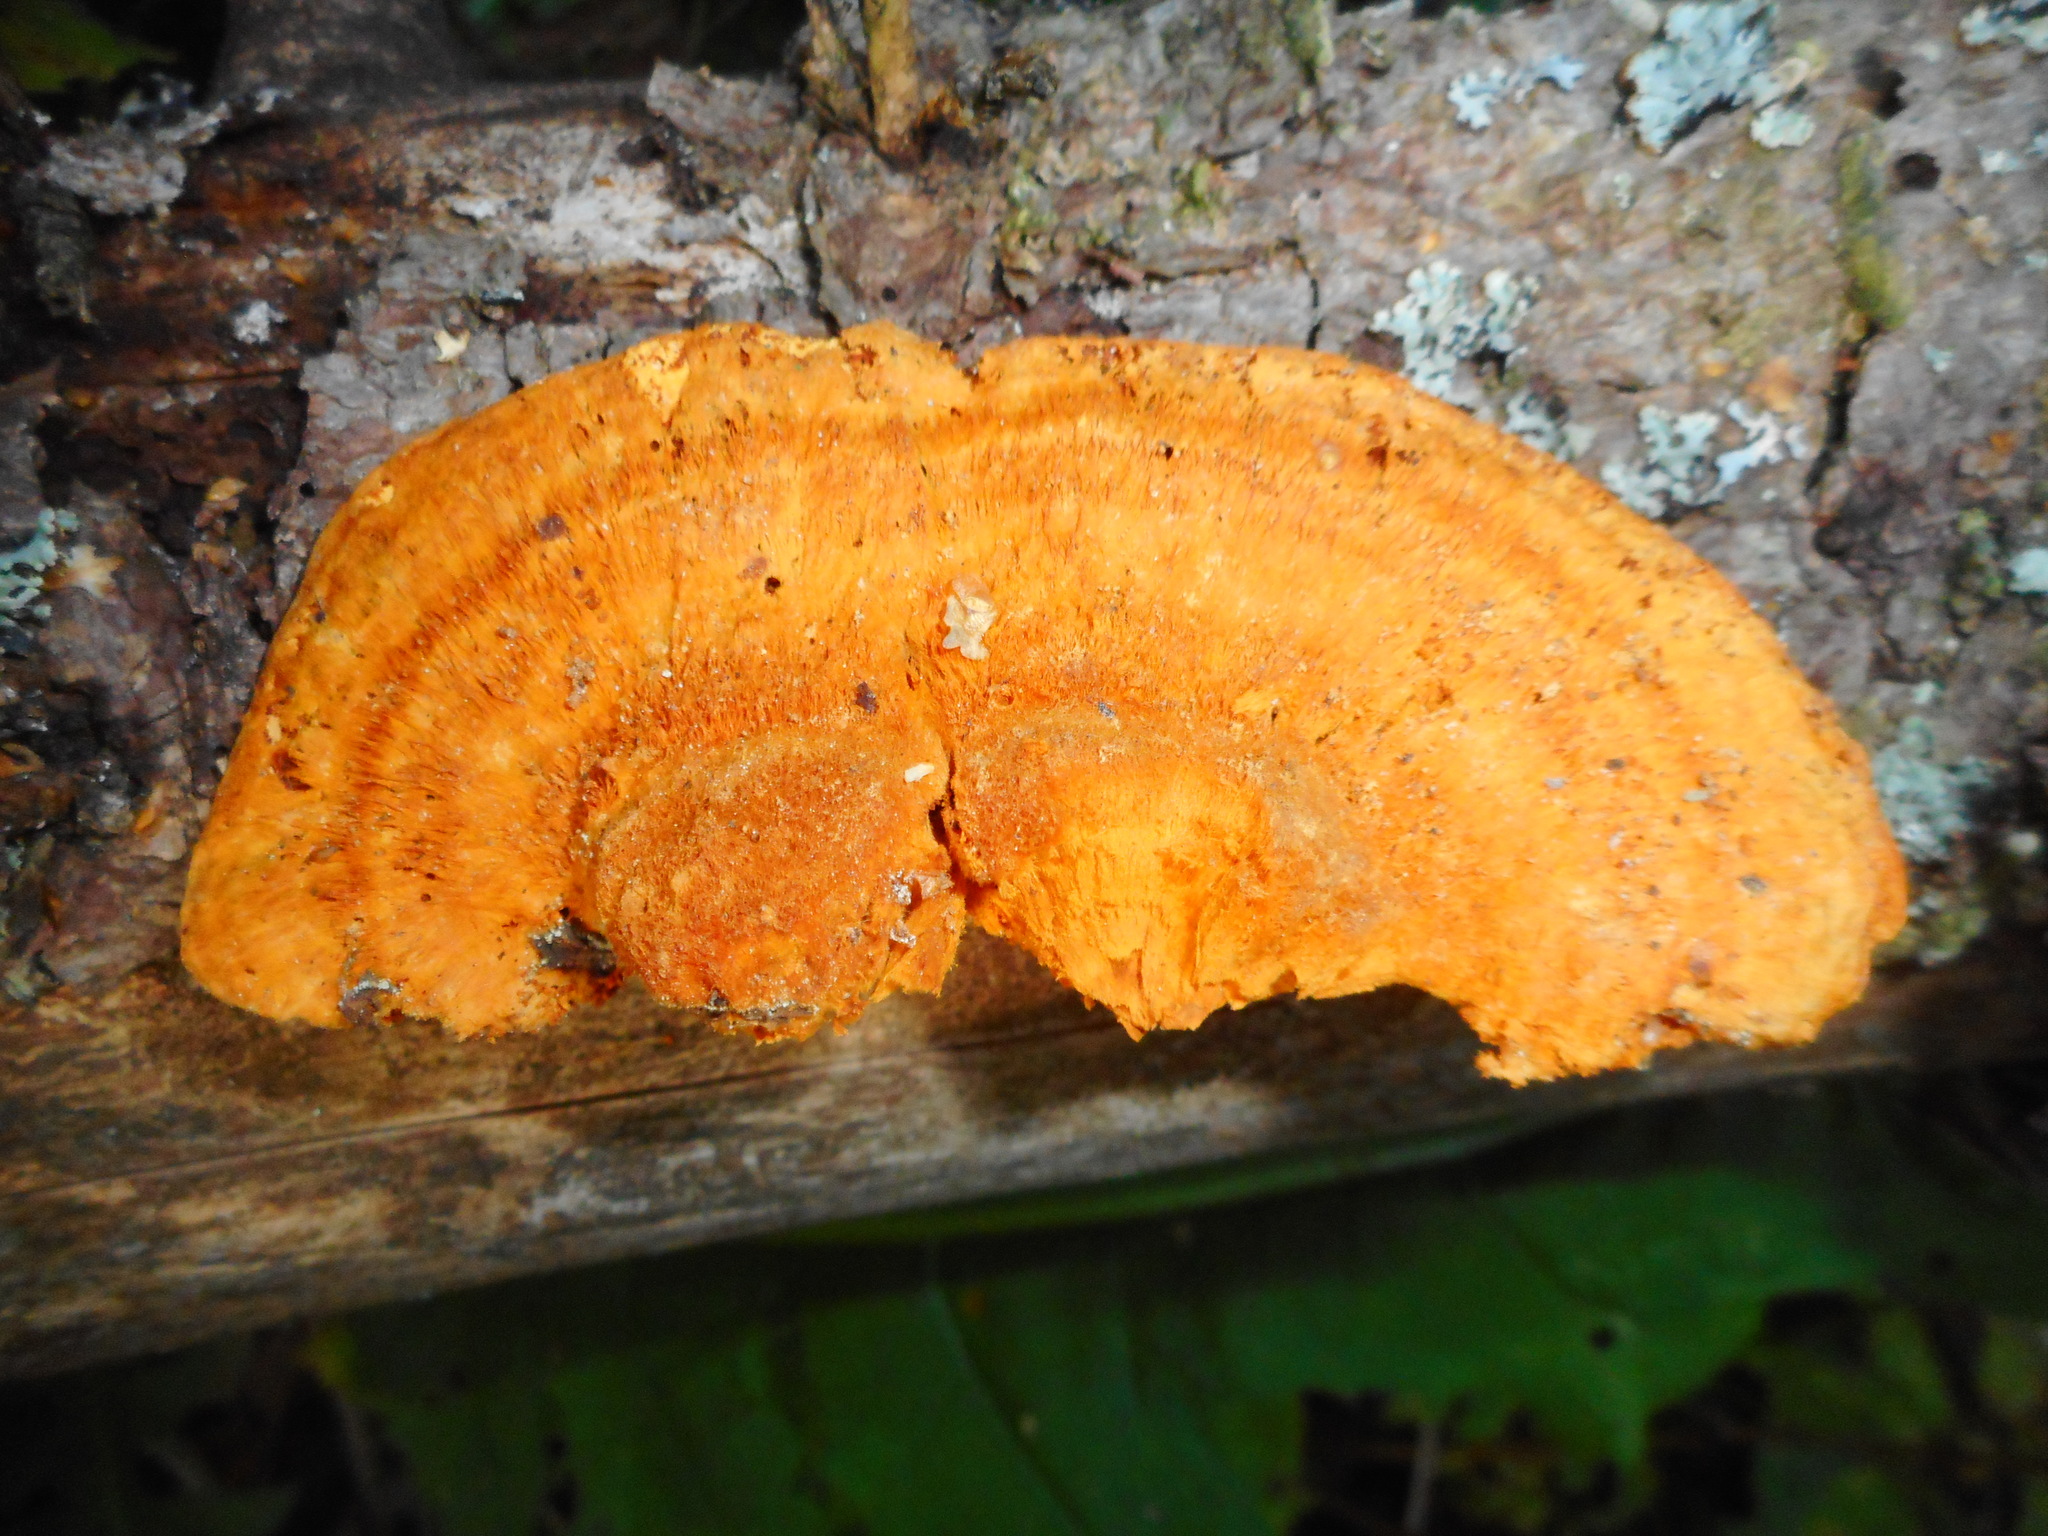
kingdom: Fungi
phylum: Basidiomycota
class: Agaricomycetes
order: Polyporales
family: Pycnoporellaceae
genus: Pycnoporellus
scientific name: Pycnoporellus fulgens
